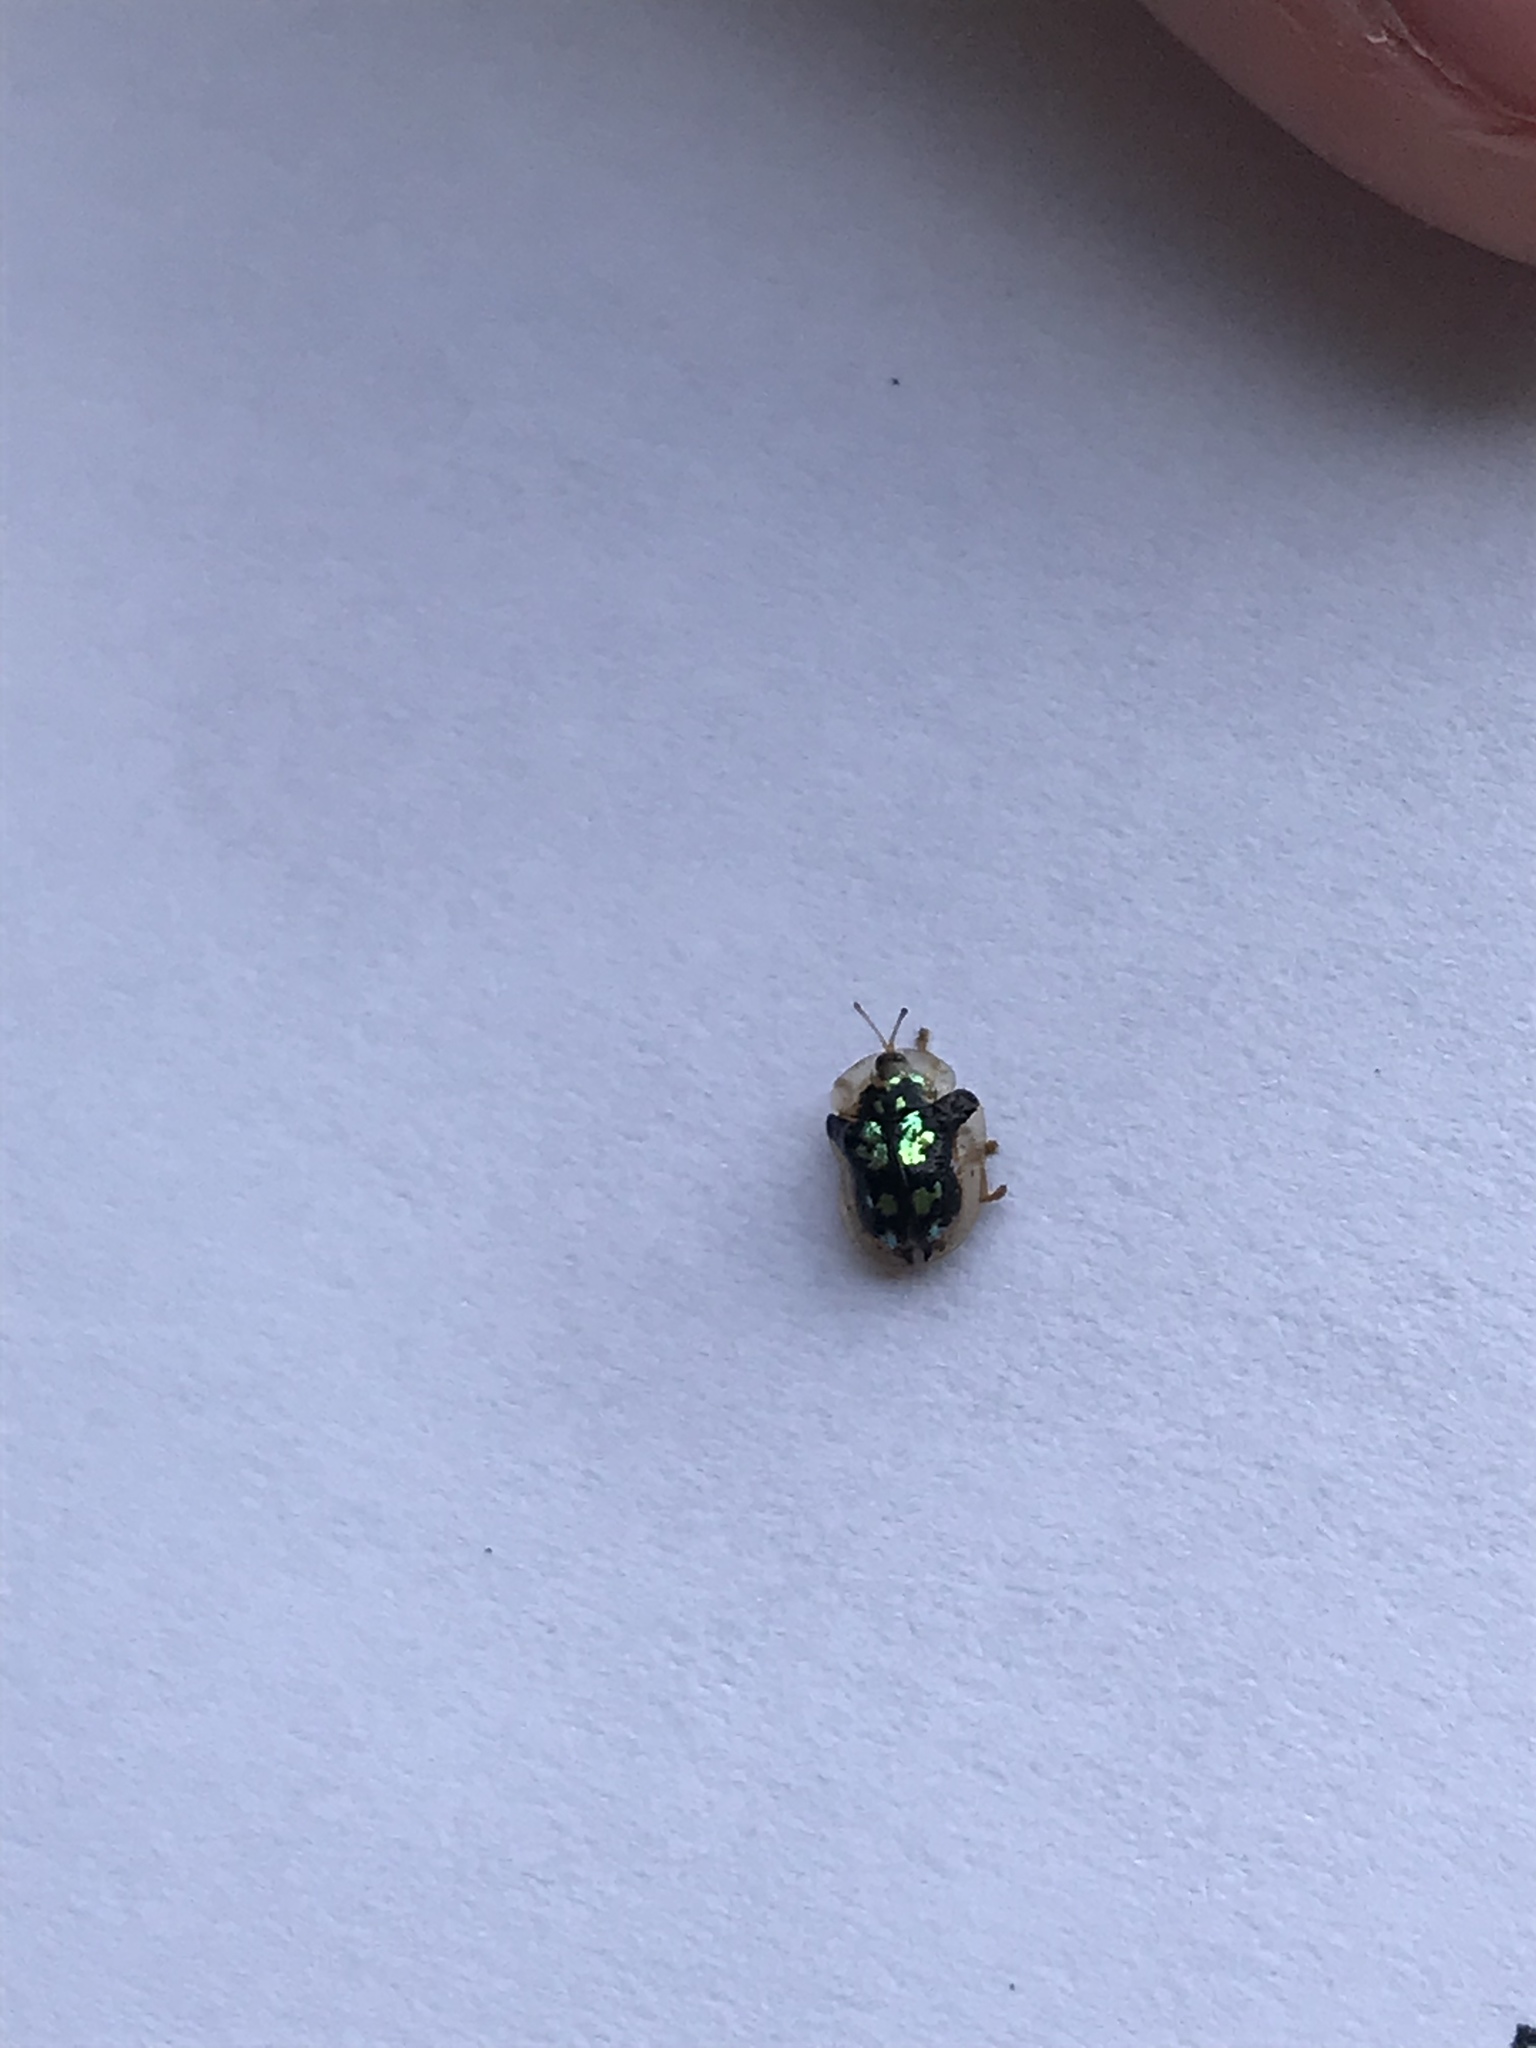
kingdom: Animalia
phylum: Arthropoda
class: Insecta
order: Coleoptera
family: Chrysomelidae
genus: Deloyala
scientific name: Deloyala guttata
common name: Mottled tortoise beetle
